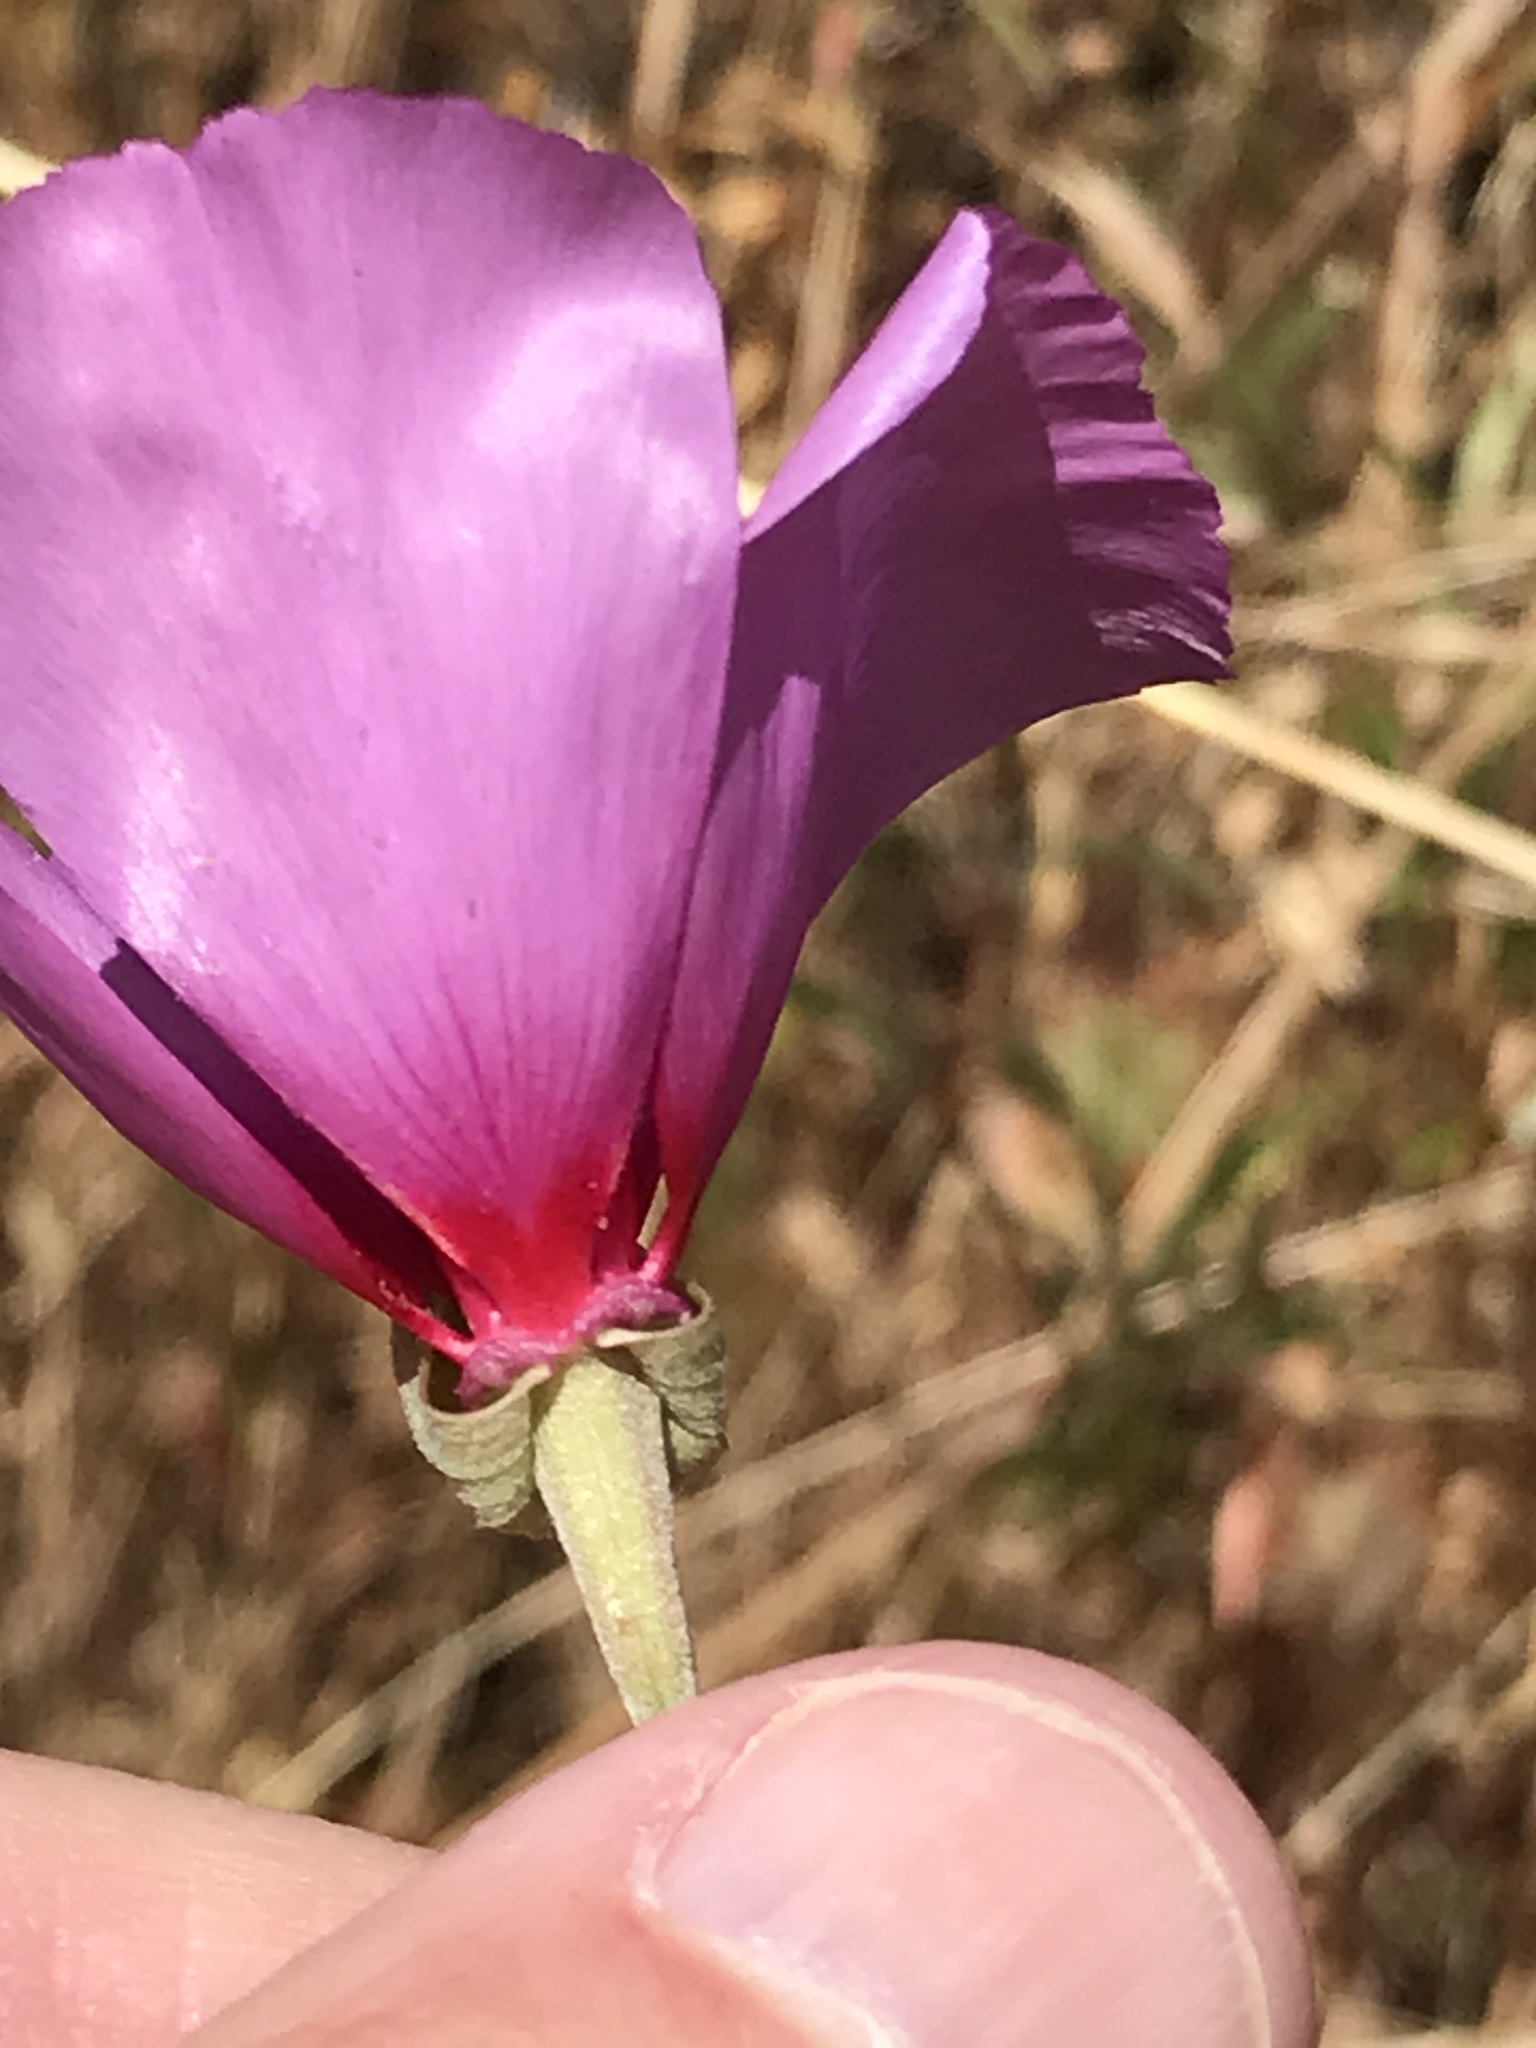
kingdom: Plantae
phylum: Tracheophyta
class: Magnoliopsida
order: Myrtales
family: Onagraceae
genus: Clarkia
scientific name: Clarkia rubicunda
